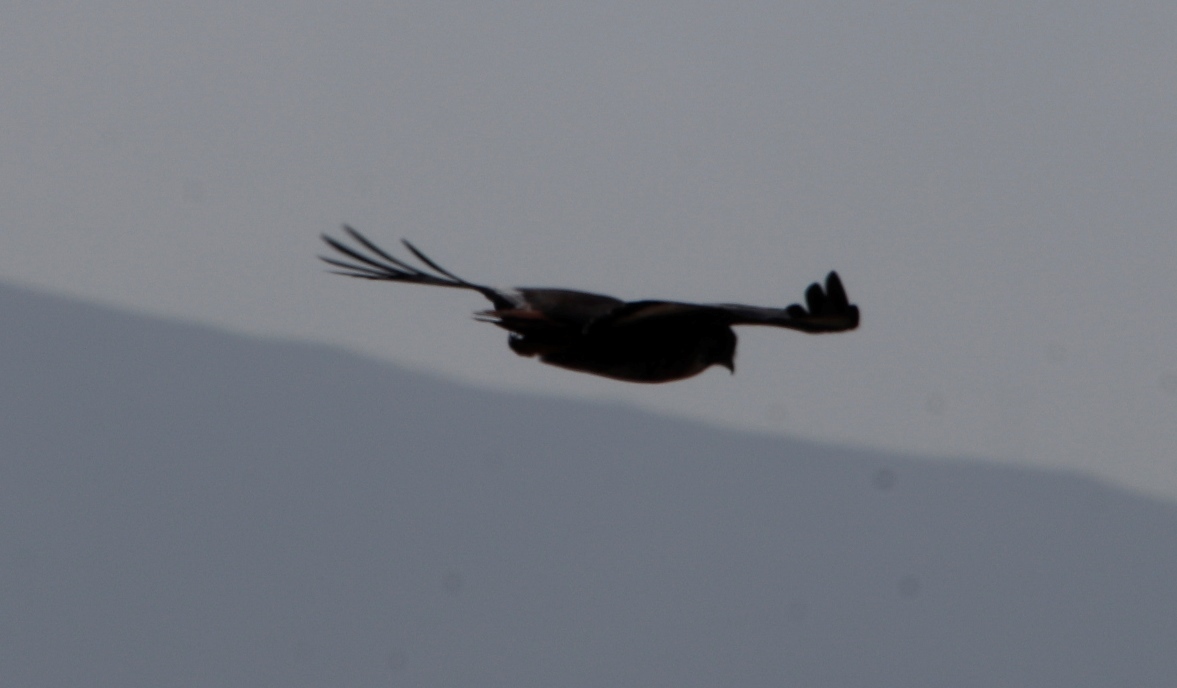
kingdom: Animalia
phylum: Chordata
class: Aves
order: Accipitriformes
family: Accipitridae
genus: Buteo
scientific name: Buteo rufofuscus
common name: Jackal buzzard
